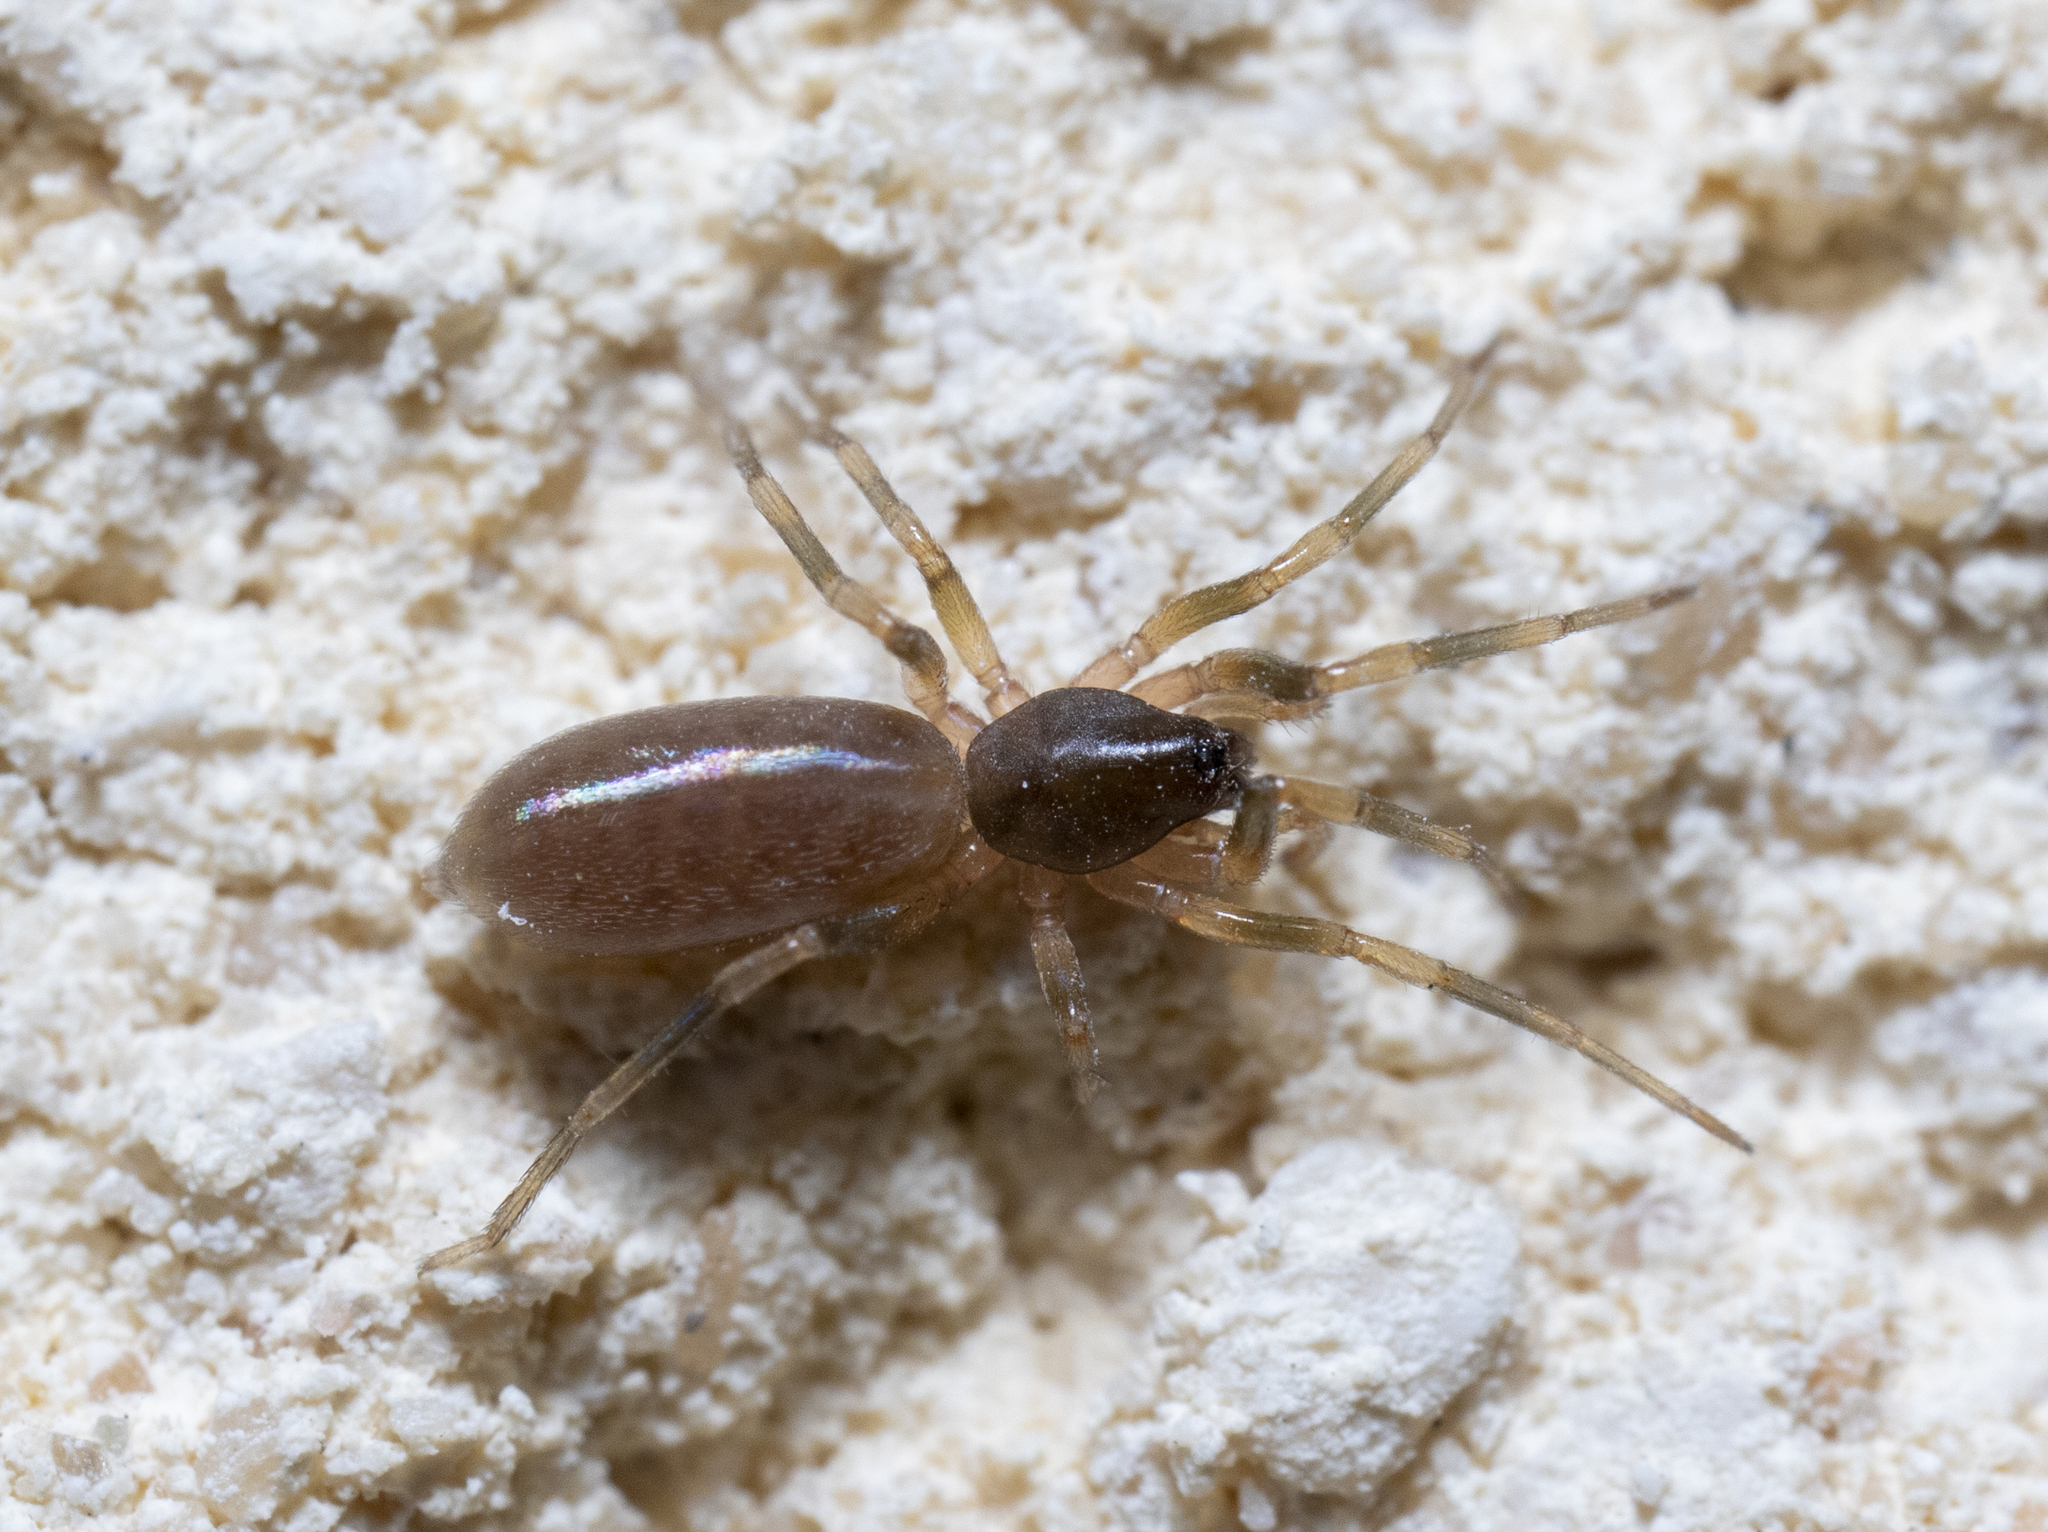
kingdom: Animalia
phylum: Arthropoda
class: Arachnida
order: Araneae
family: Dysderidae
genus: Harpactea
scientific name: Harpactea hombergi
